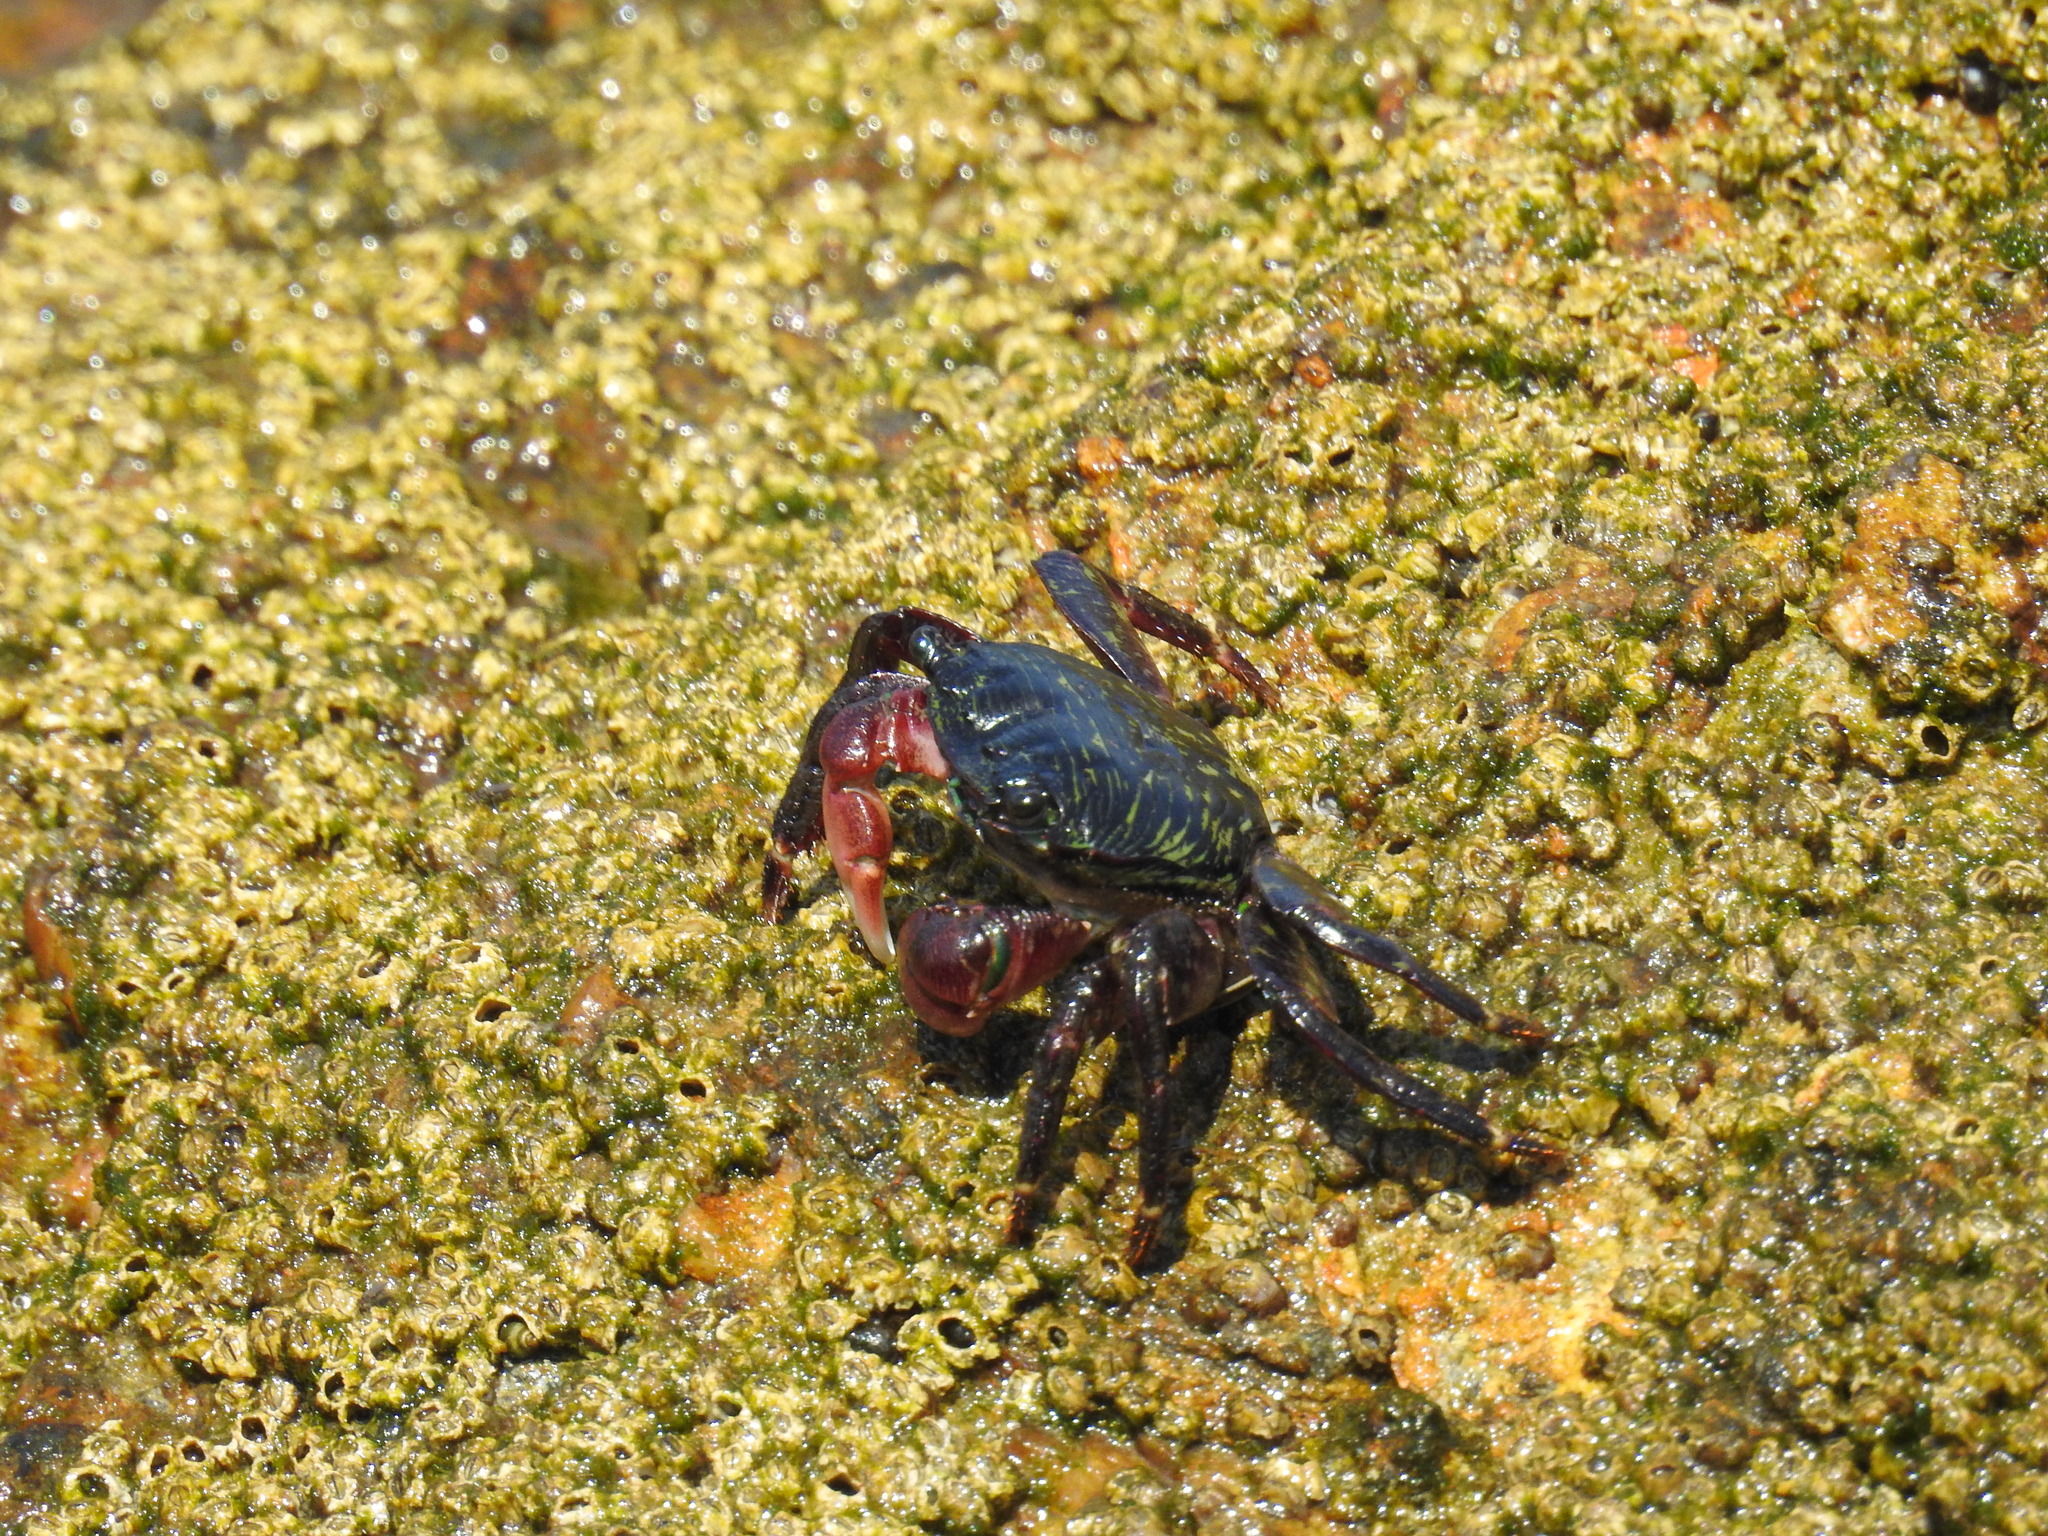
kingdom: Animalia
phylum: Arthropoda
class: Malacostraca
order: Decapoda
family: Grapsidae
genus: Pachygrapsus
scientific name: Pachygrapsus crassipes
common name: Striped shore crab
